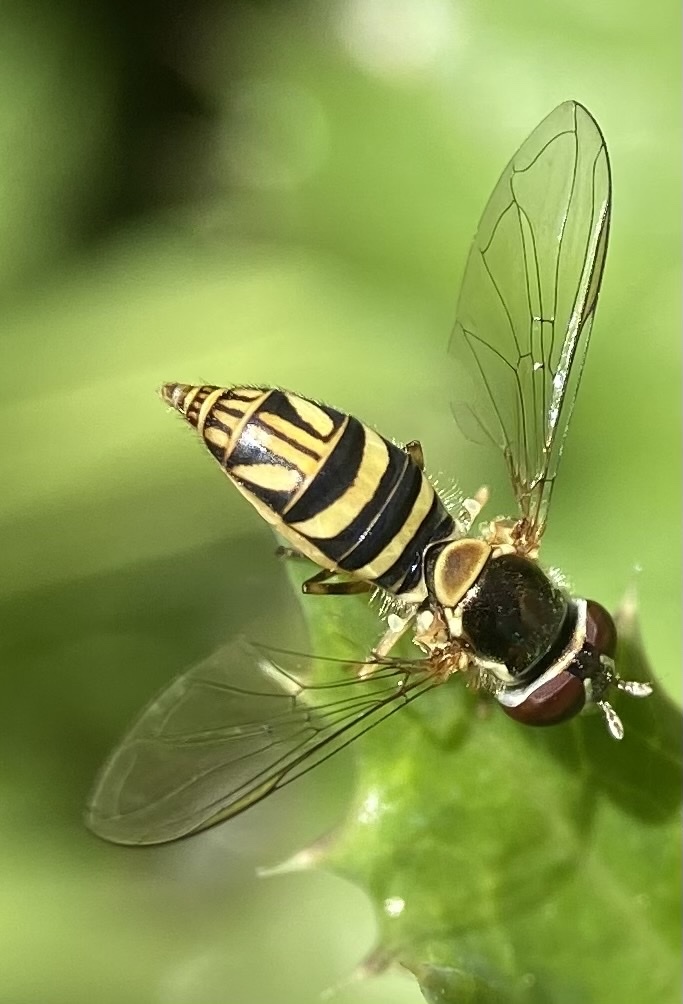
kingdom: Animalia
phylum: Arthropoda
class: Insecta
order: Diptera
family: Syrphidae
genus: Allograpta
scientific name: Allograpta obliqua
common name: Common oblique syrphid
